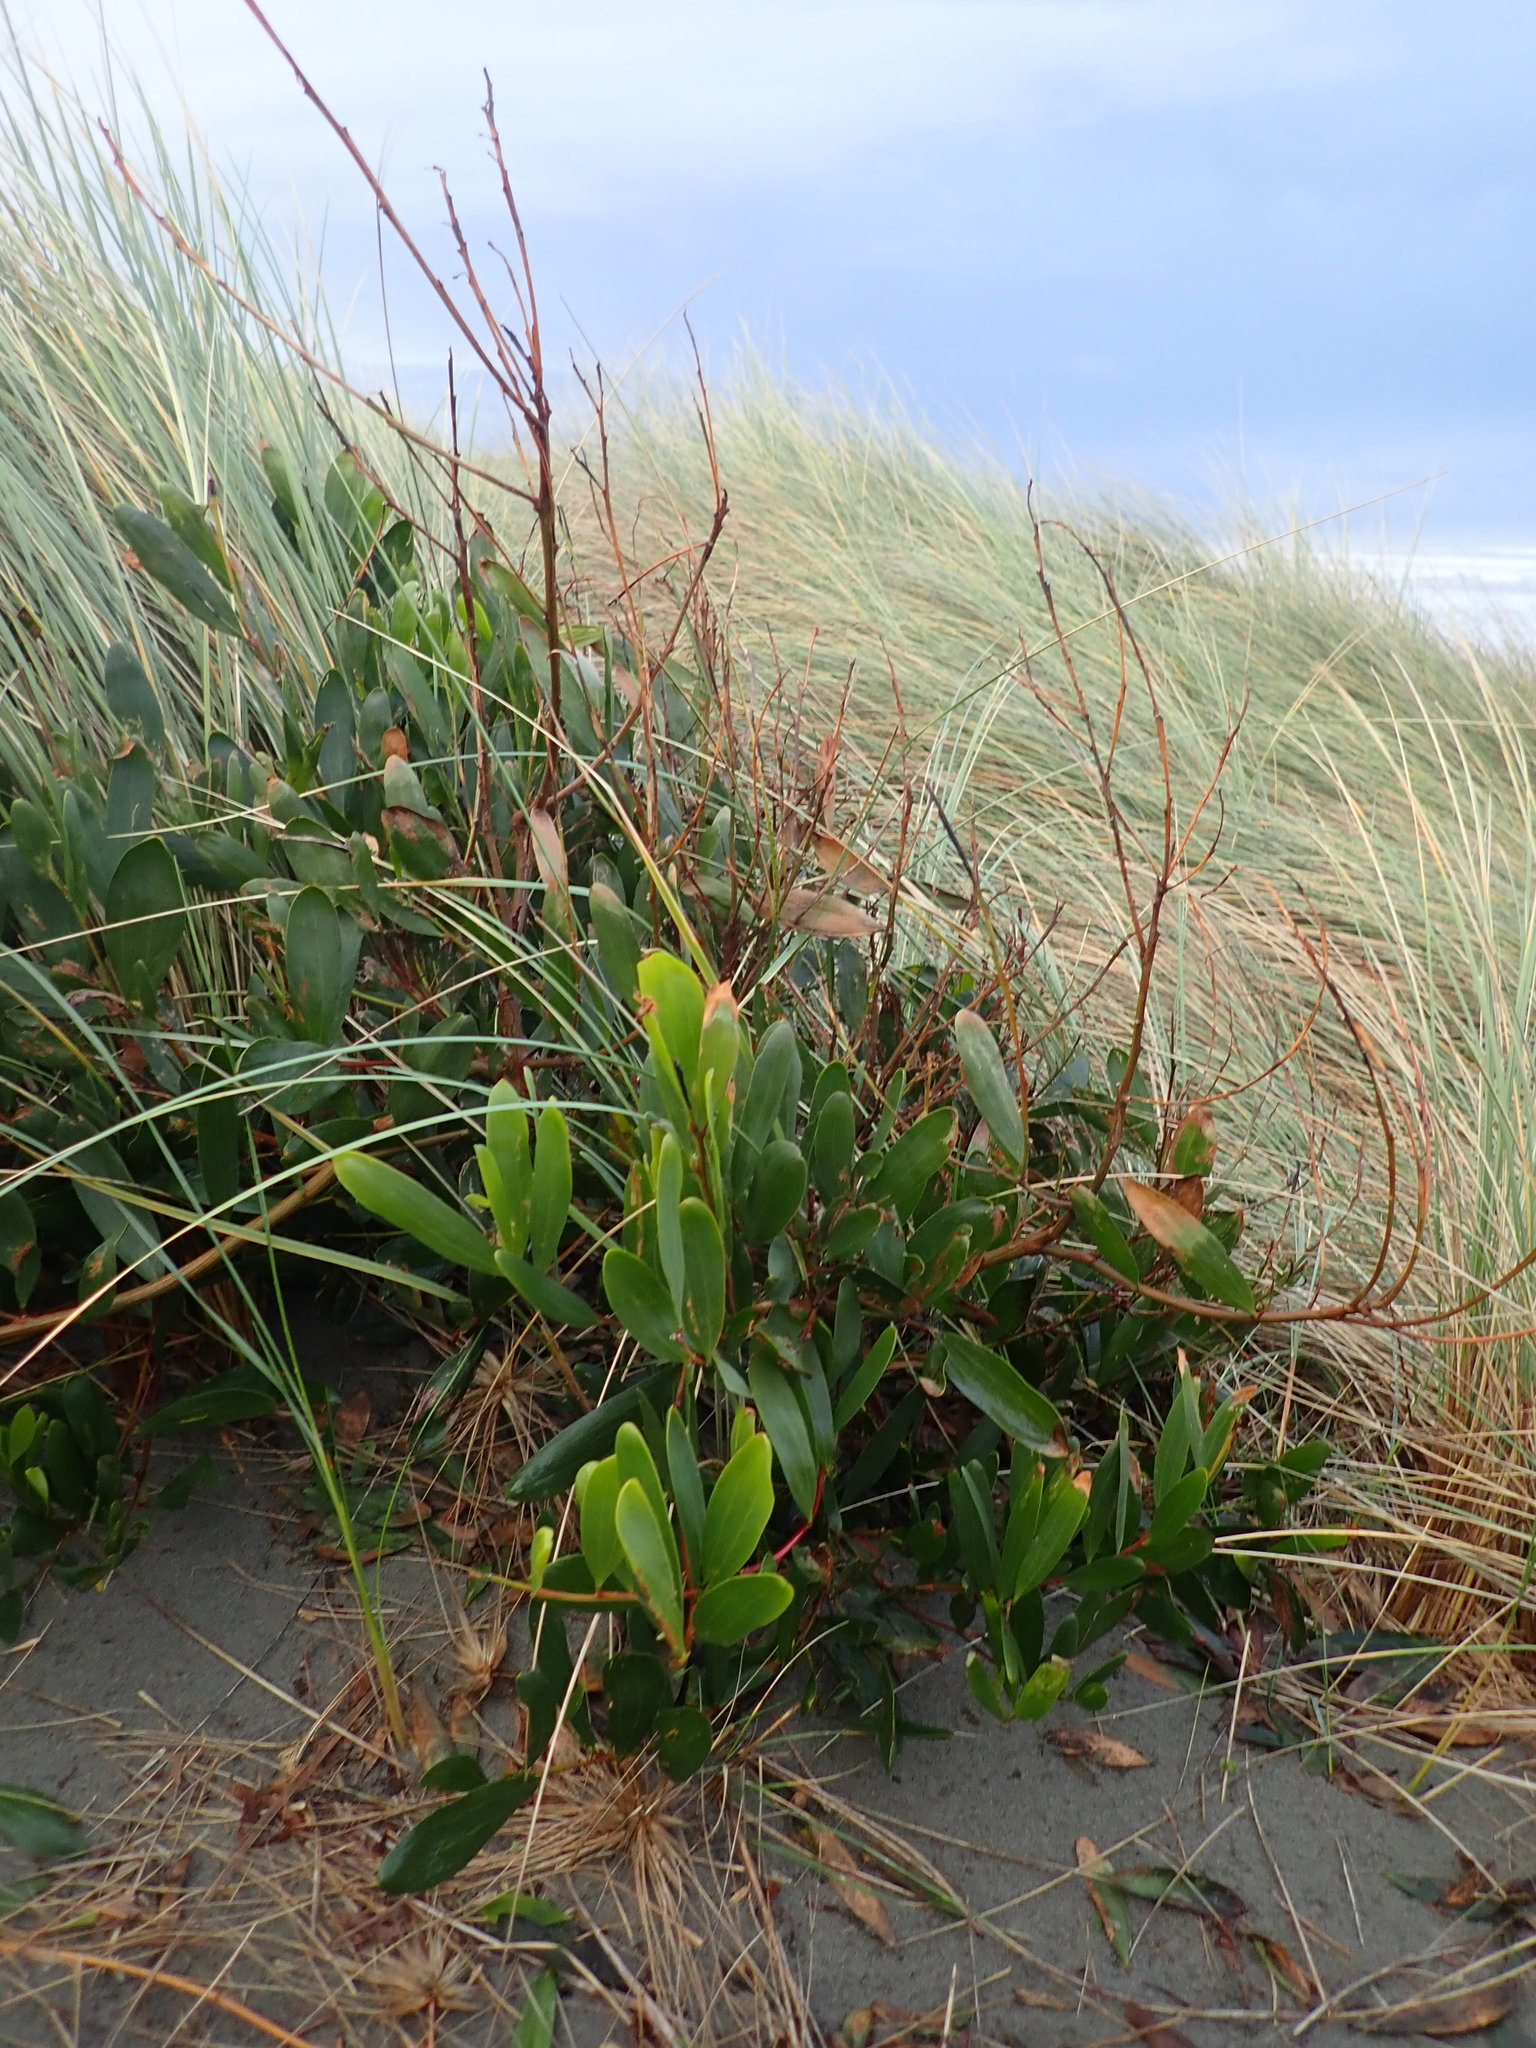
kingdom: Plantae
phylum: Tracheophyta
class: Magnoliopsida
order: Fabales
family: Fabaceae
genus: Acacia
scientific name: Acacia longifolia
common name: Sydney golden wattle
